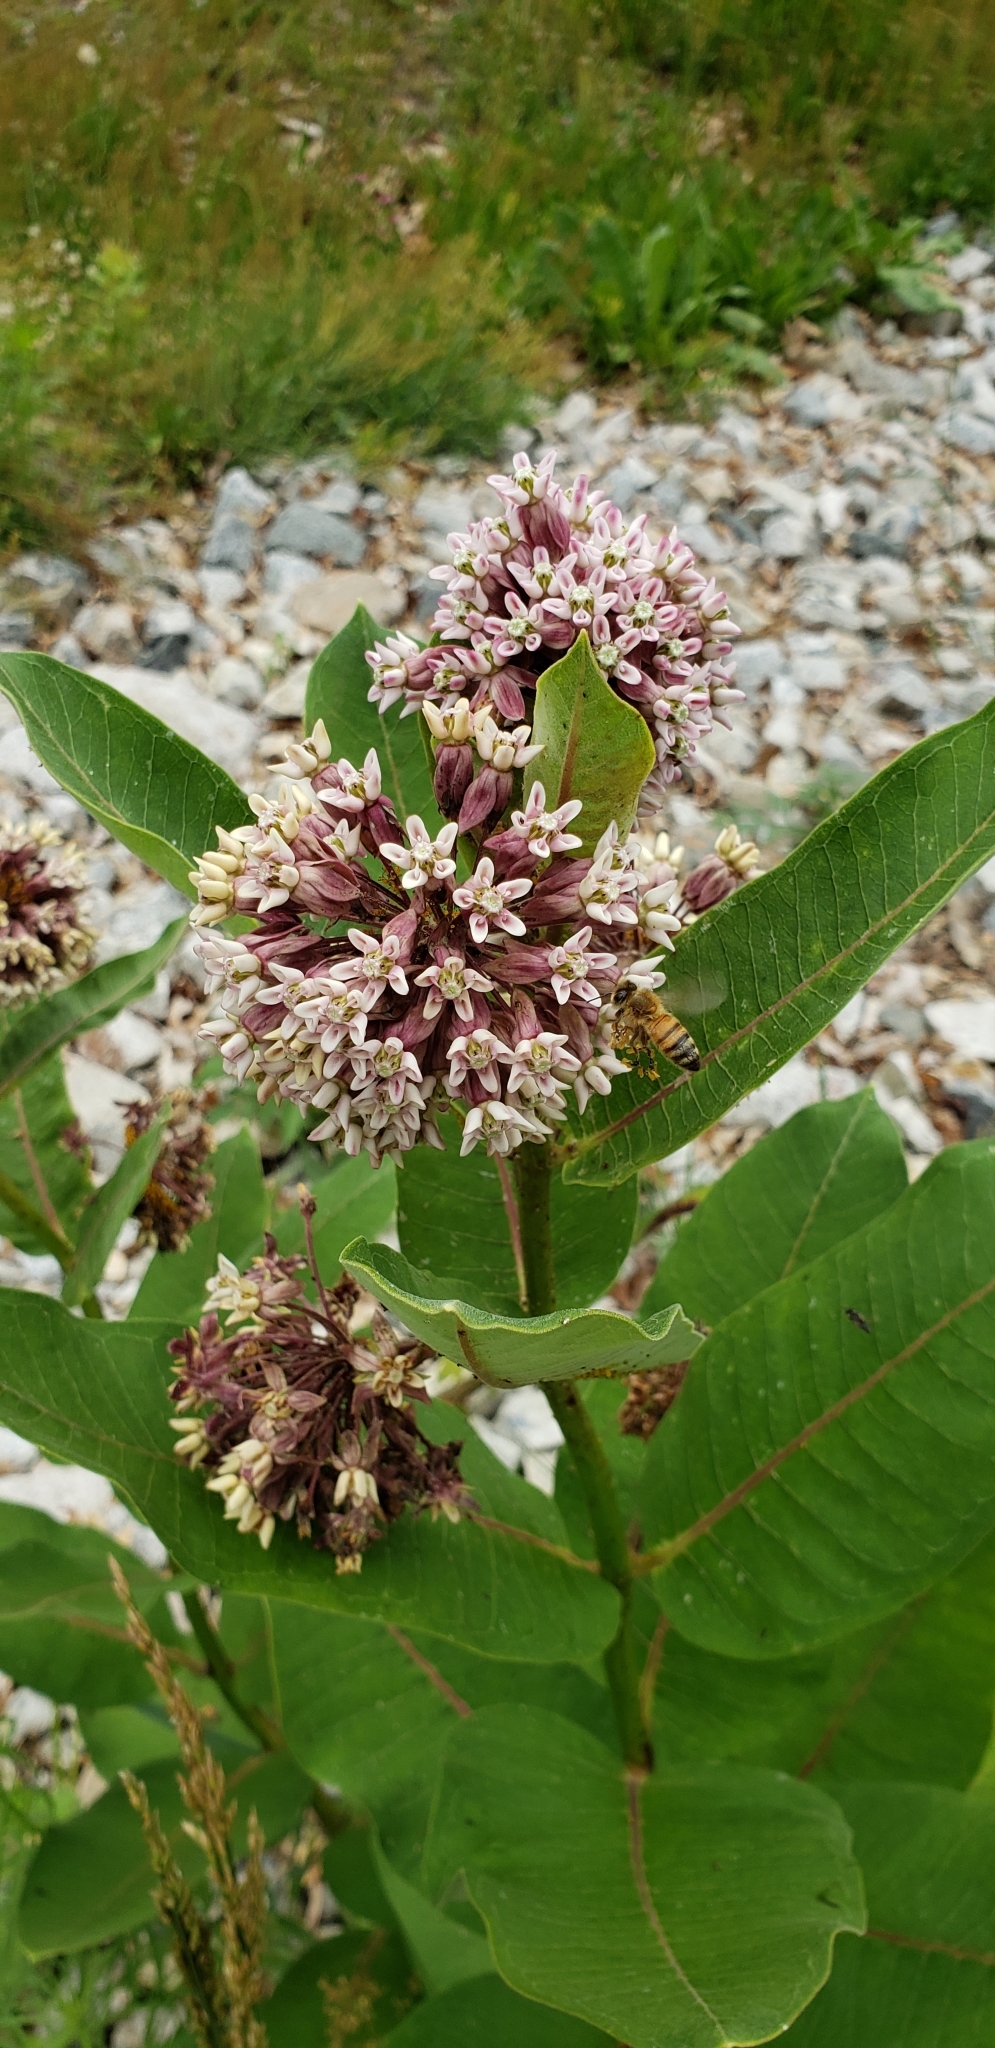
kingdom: Plantae
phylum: Tracheophyta
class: Magnoliopsida
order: Gentianales
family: Apocynaceae
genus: Asclepias
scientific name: Asclepias syriaca
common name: Common milkweed
